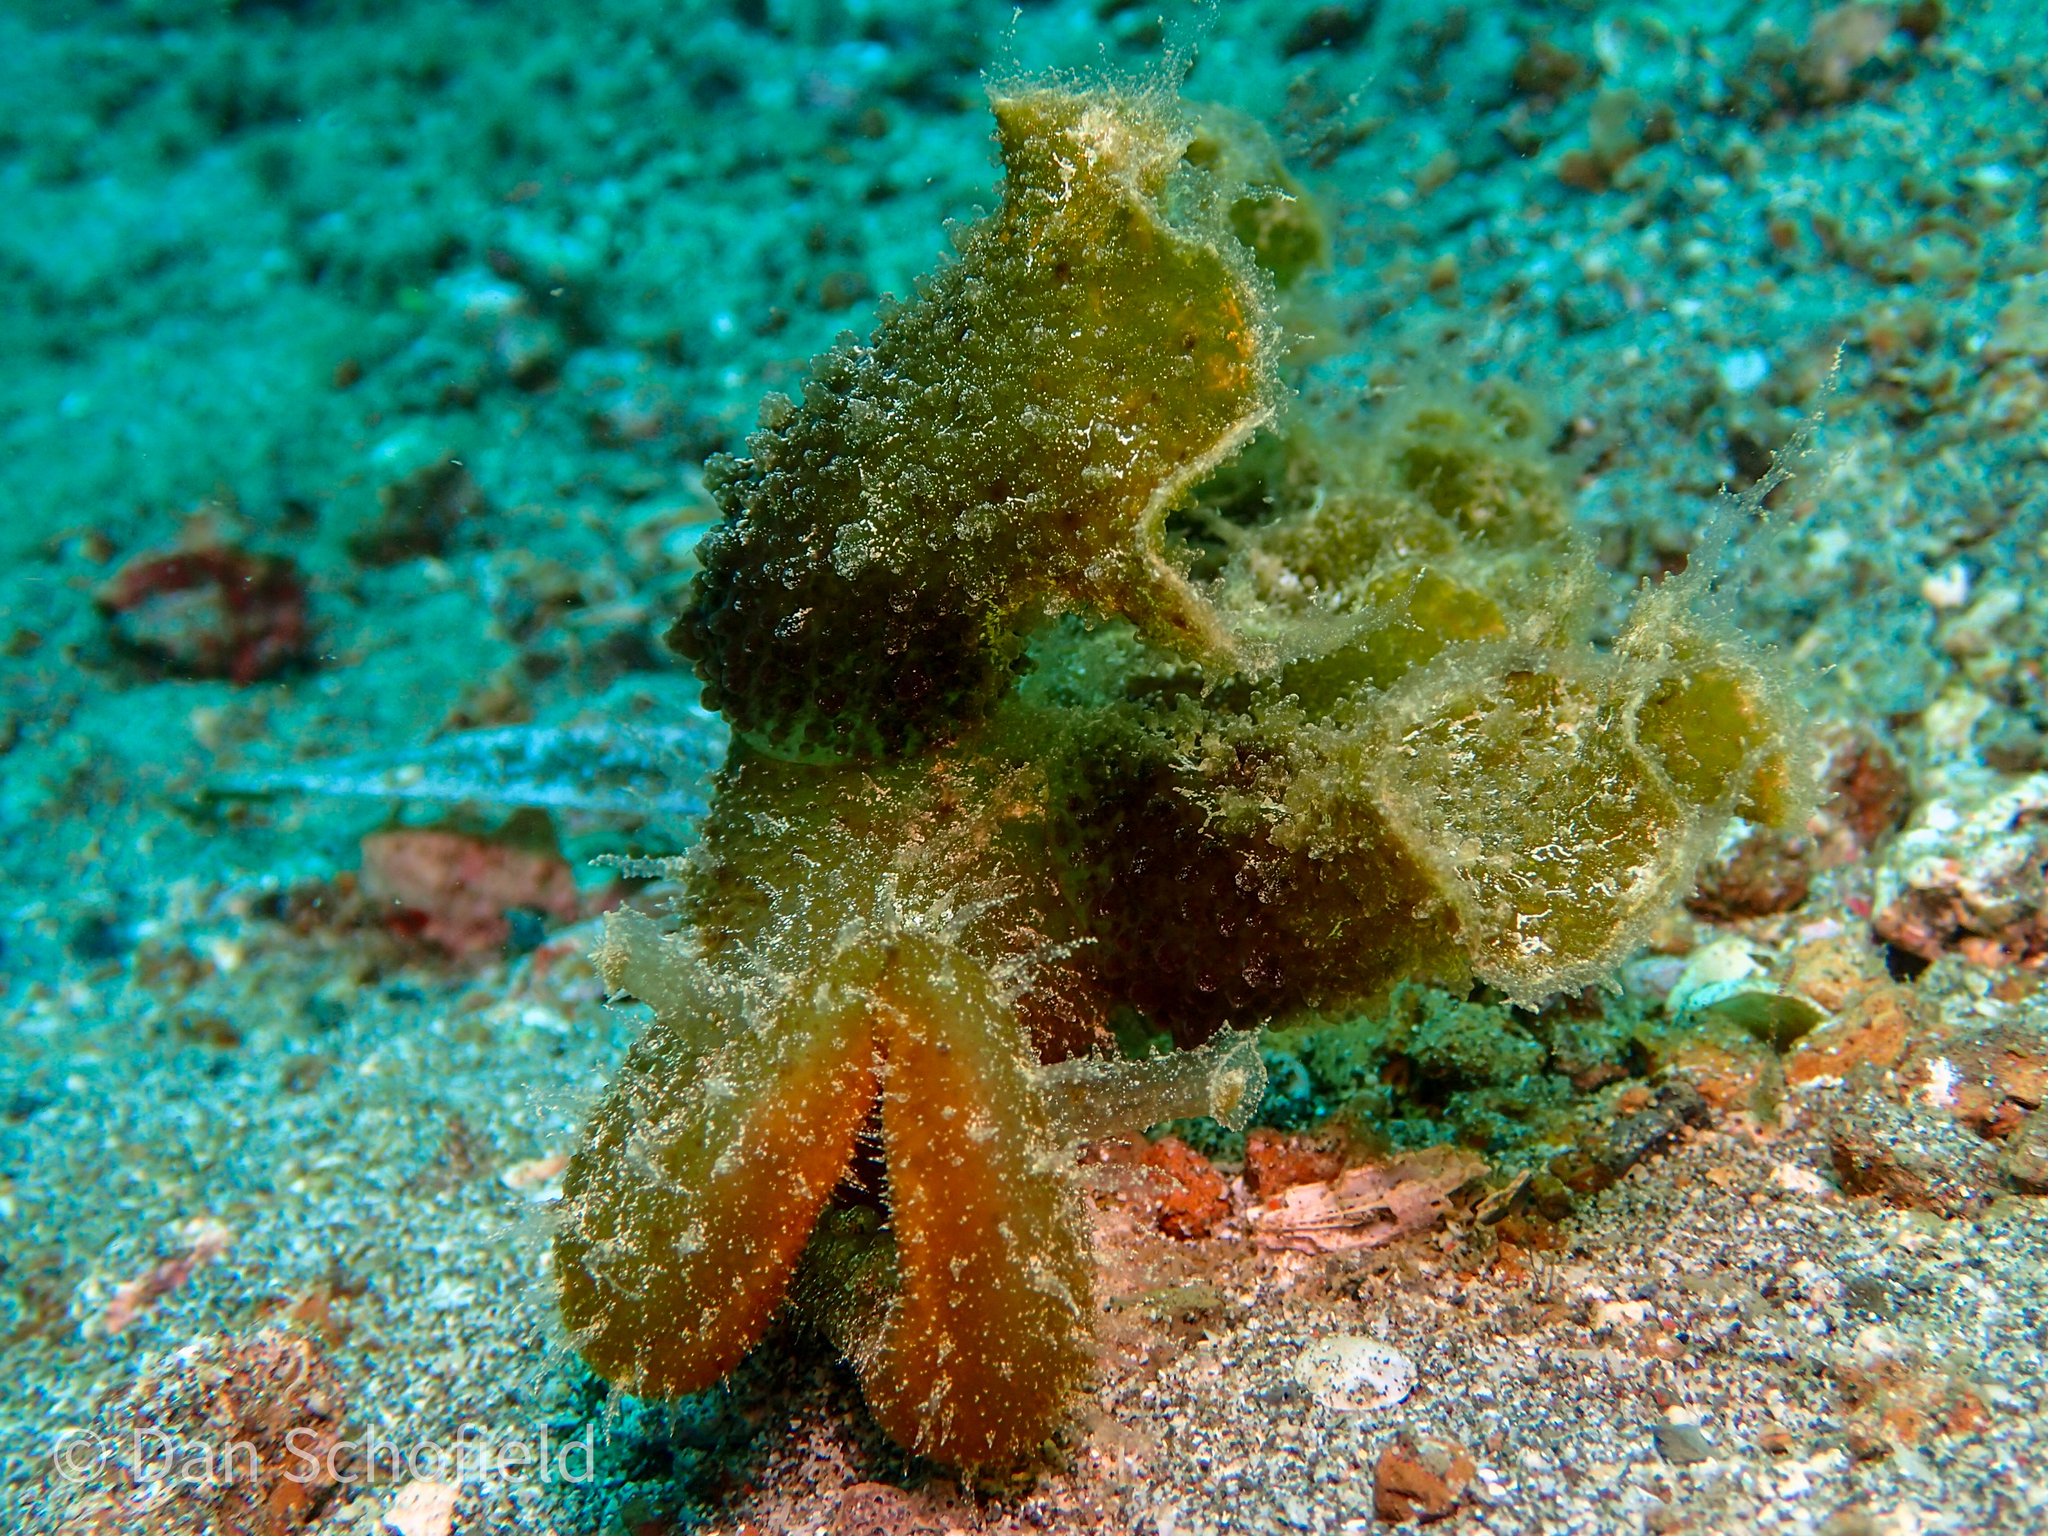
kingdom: Animalia
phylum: Mollusca
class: Gastropoda
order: Nudibranchia
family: Tethydidae
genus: Melibe
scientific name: Melibe viridis
